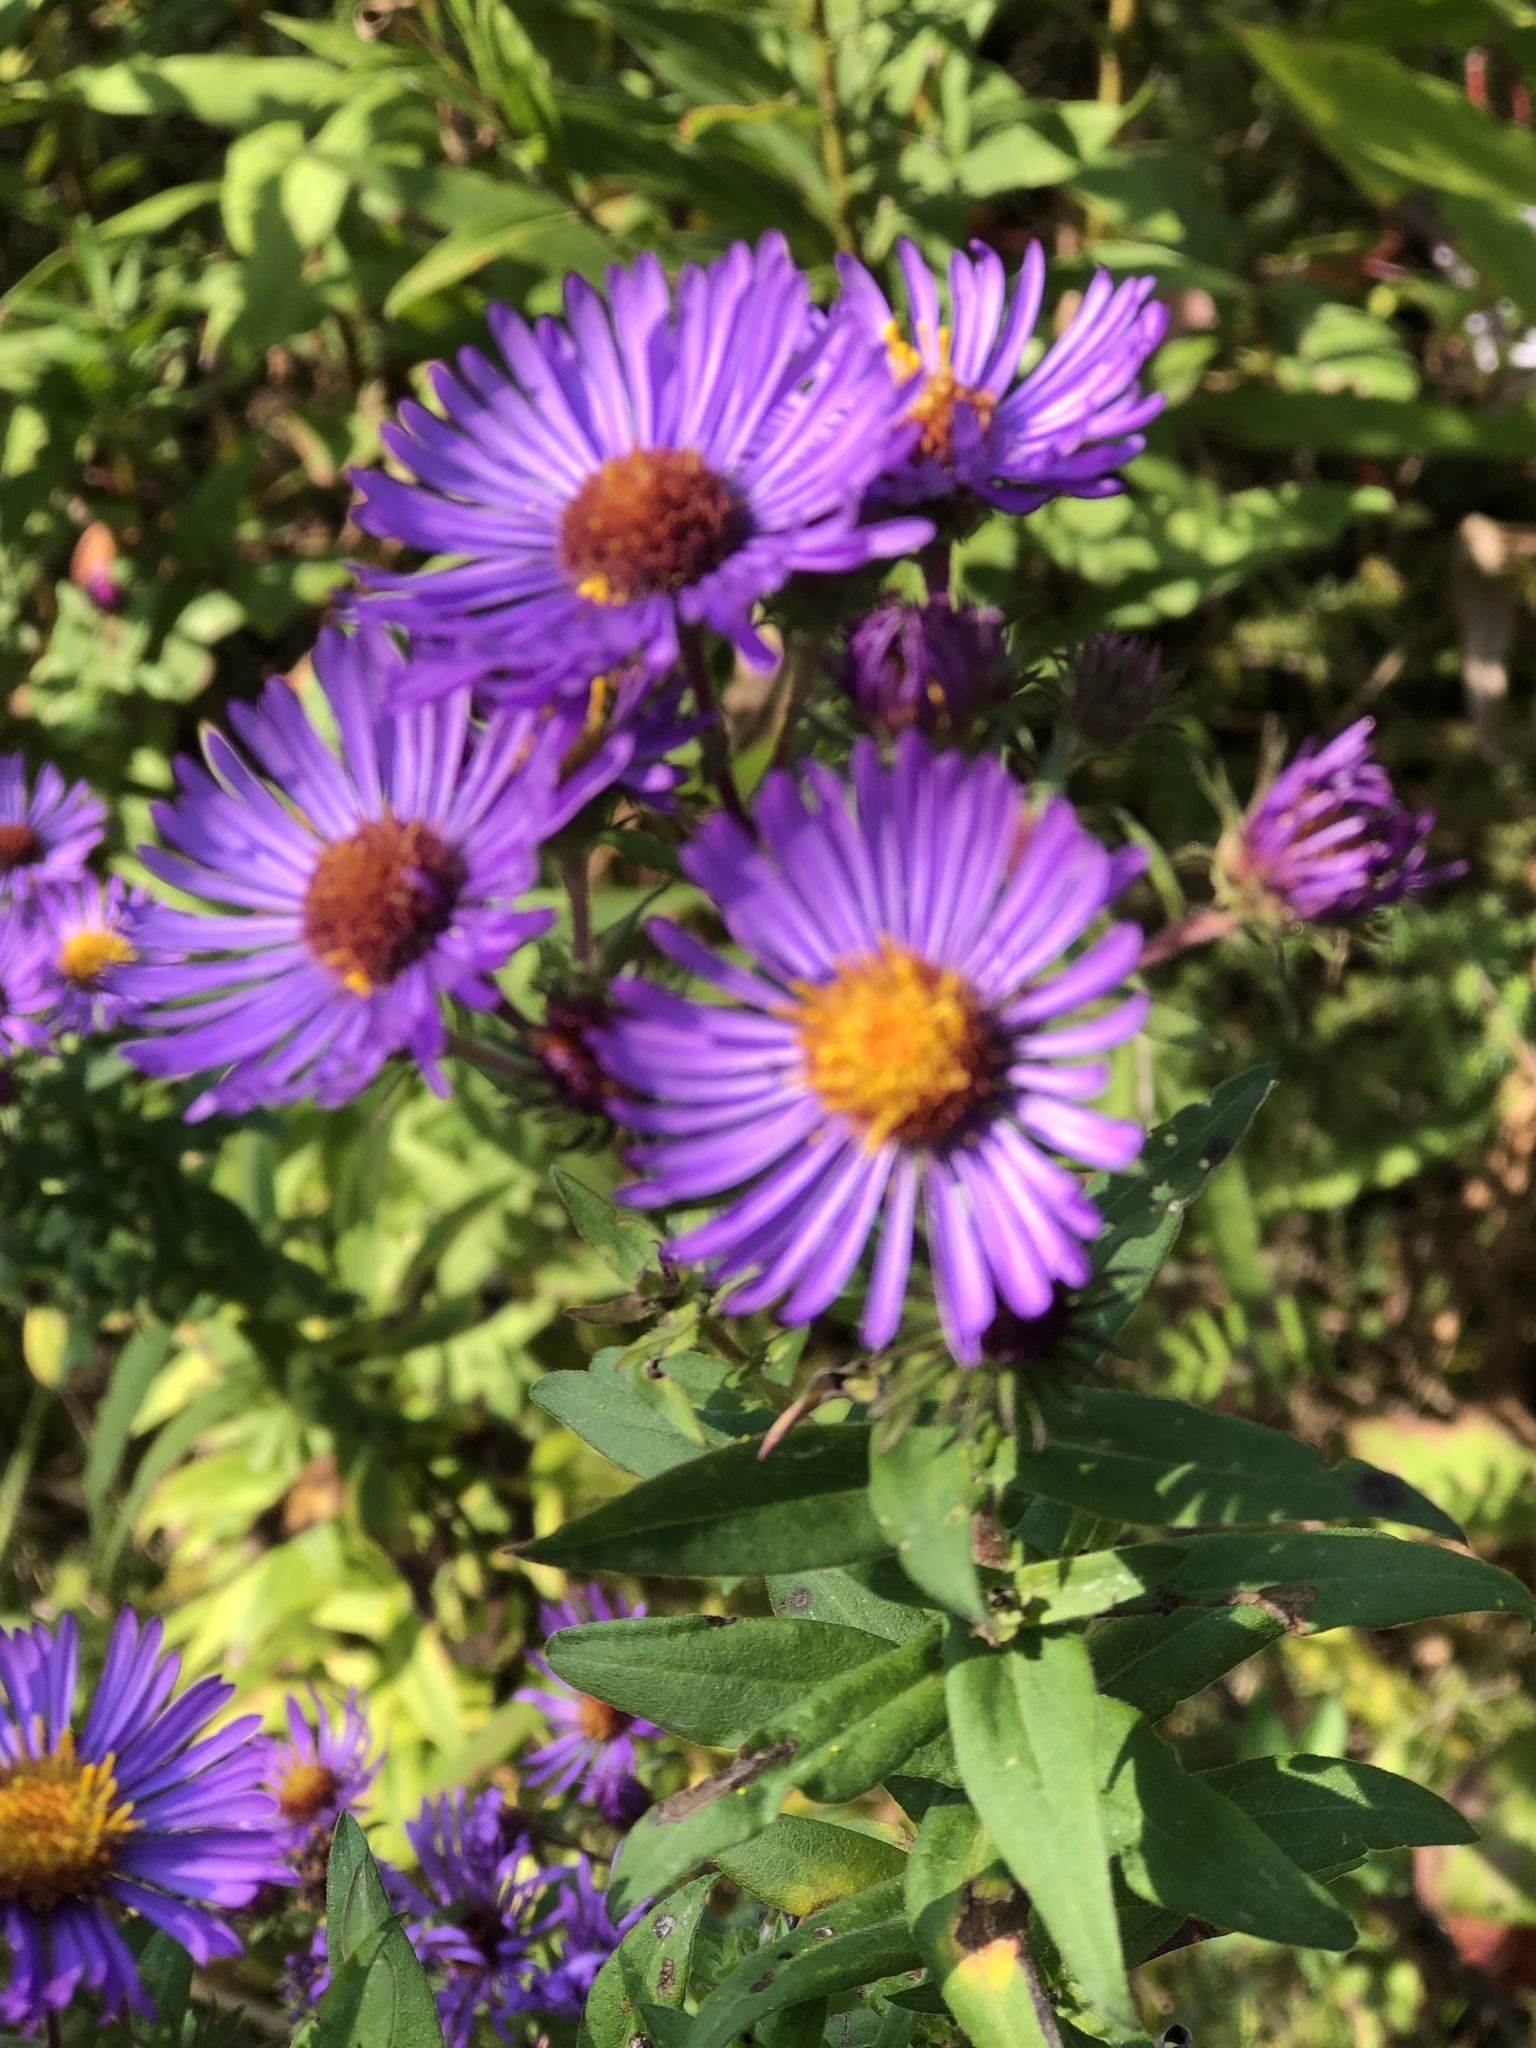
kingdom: Plantae
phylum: Tracheophyta
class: Magnoliopsida
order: Asterales
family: Asteraceae
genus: Symphyotrichum
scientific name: Symphyotrichum novae-angliae
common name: Michaelmas daisy
